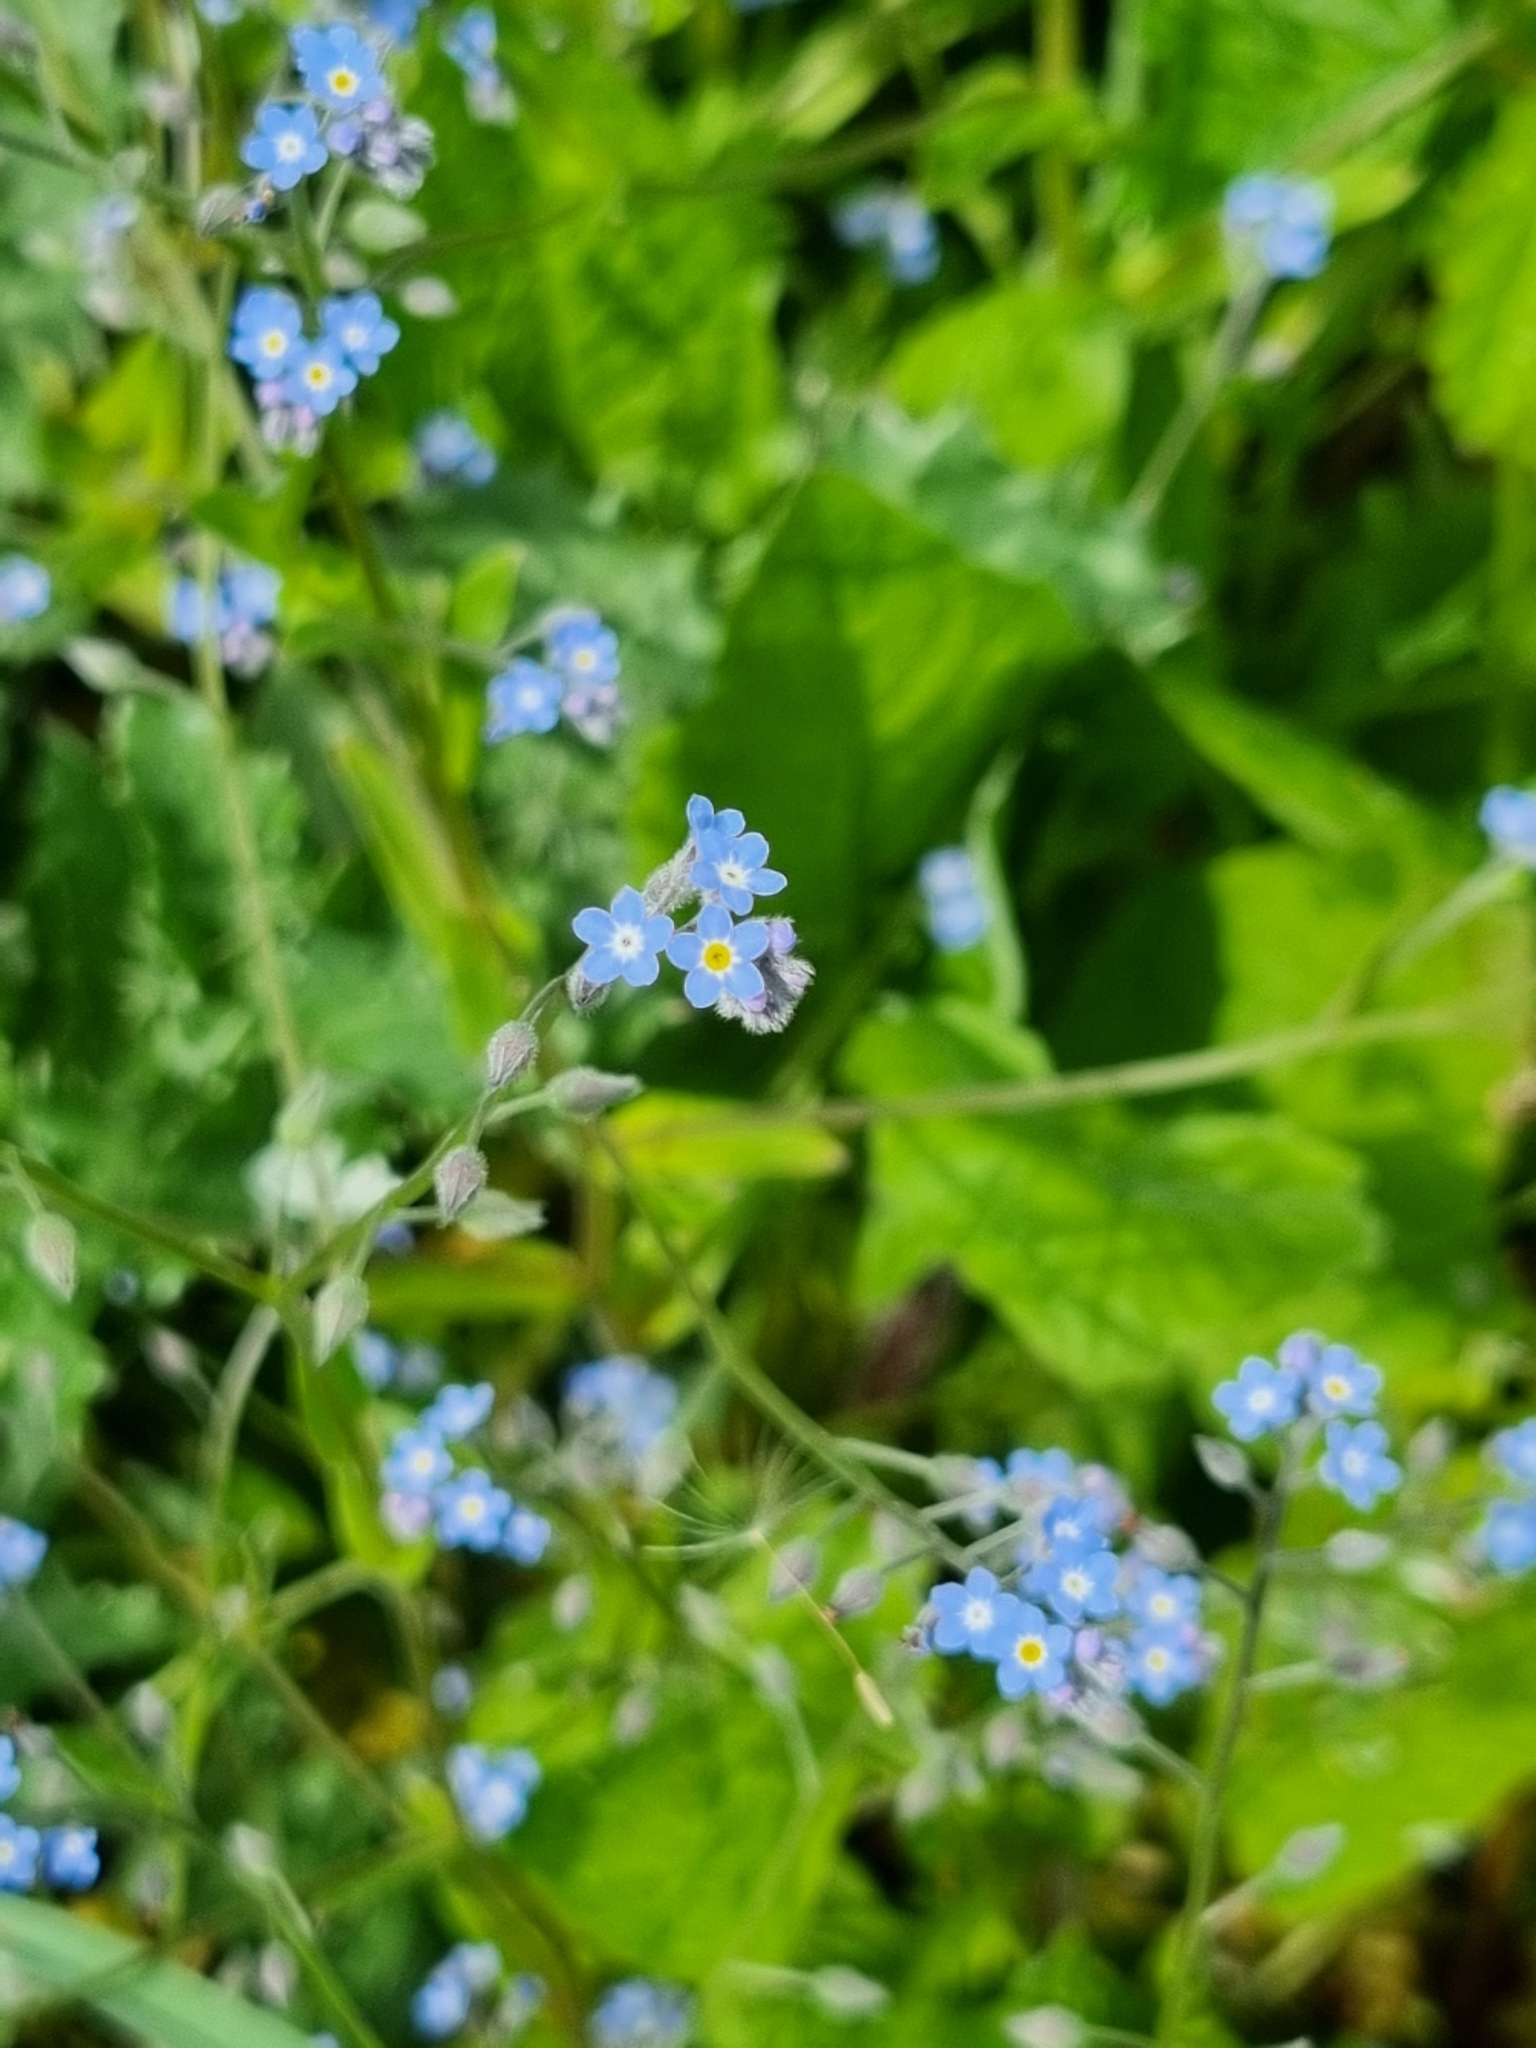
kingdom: Plantae
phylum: Tracheophyta
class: Magnoliopsida
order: Boraginales
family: Boraginaceae
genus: Myosotis
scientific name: Myosotis arvensis
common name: Field forget-me-not
